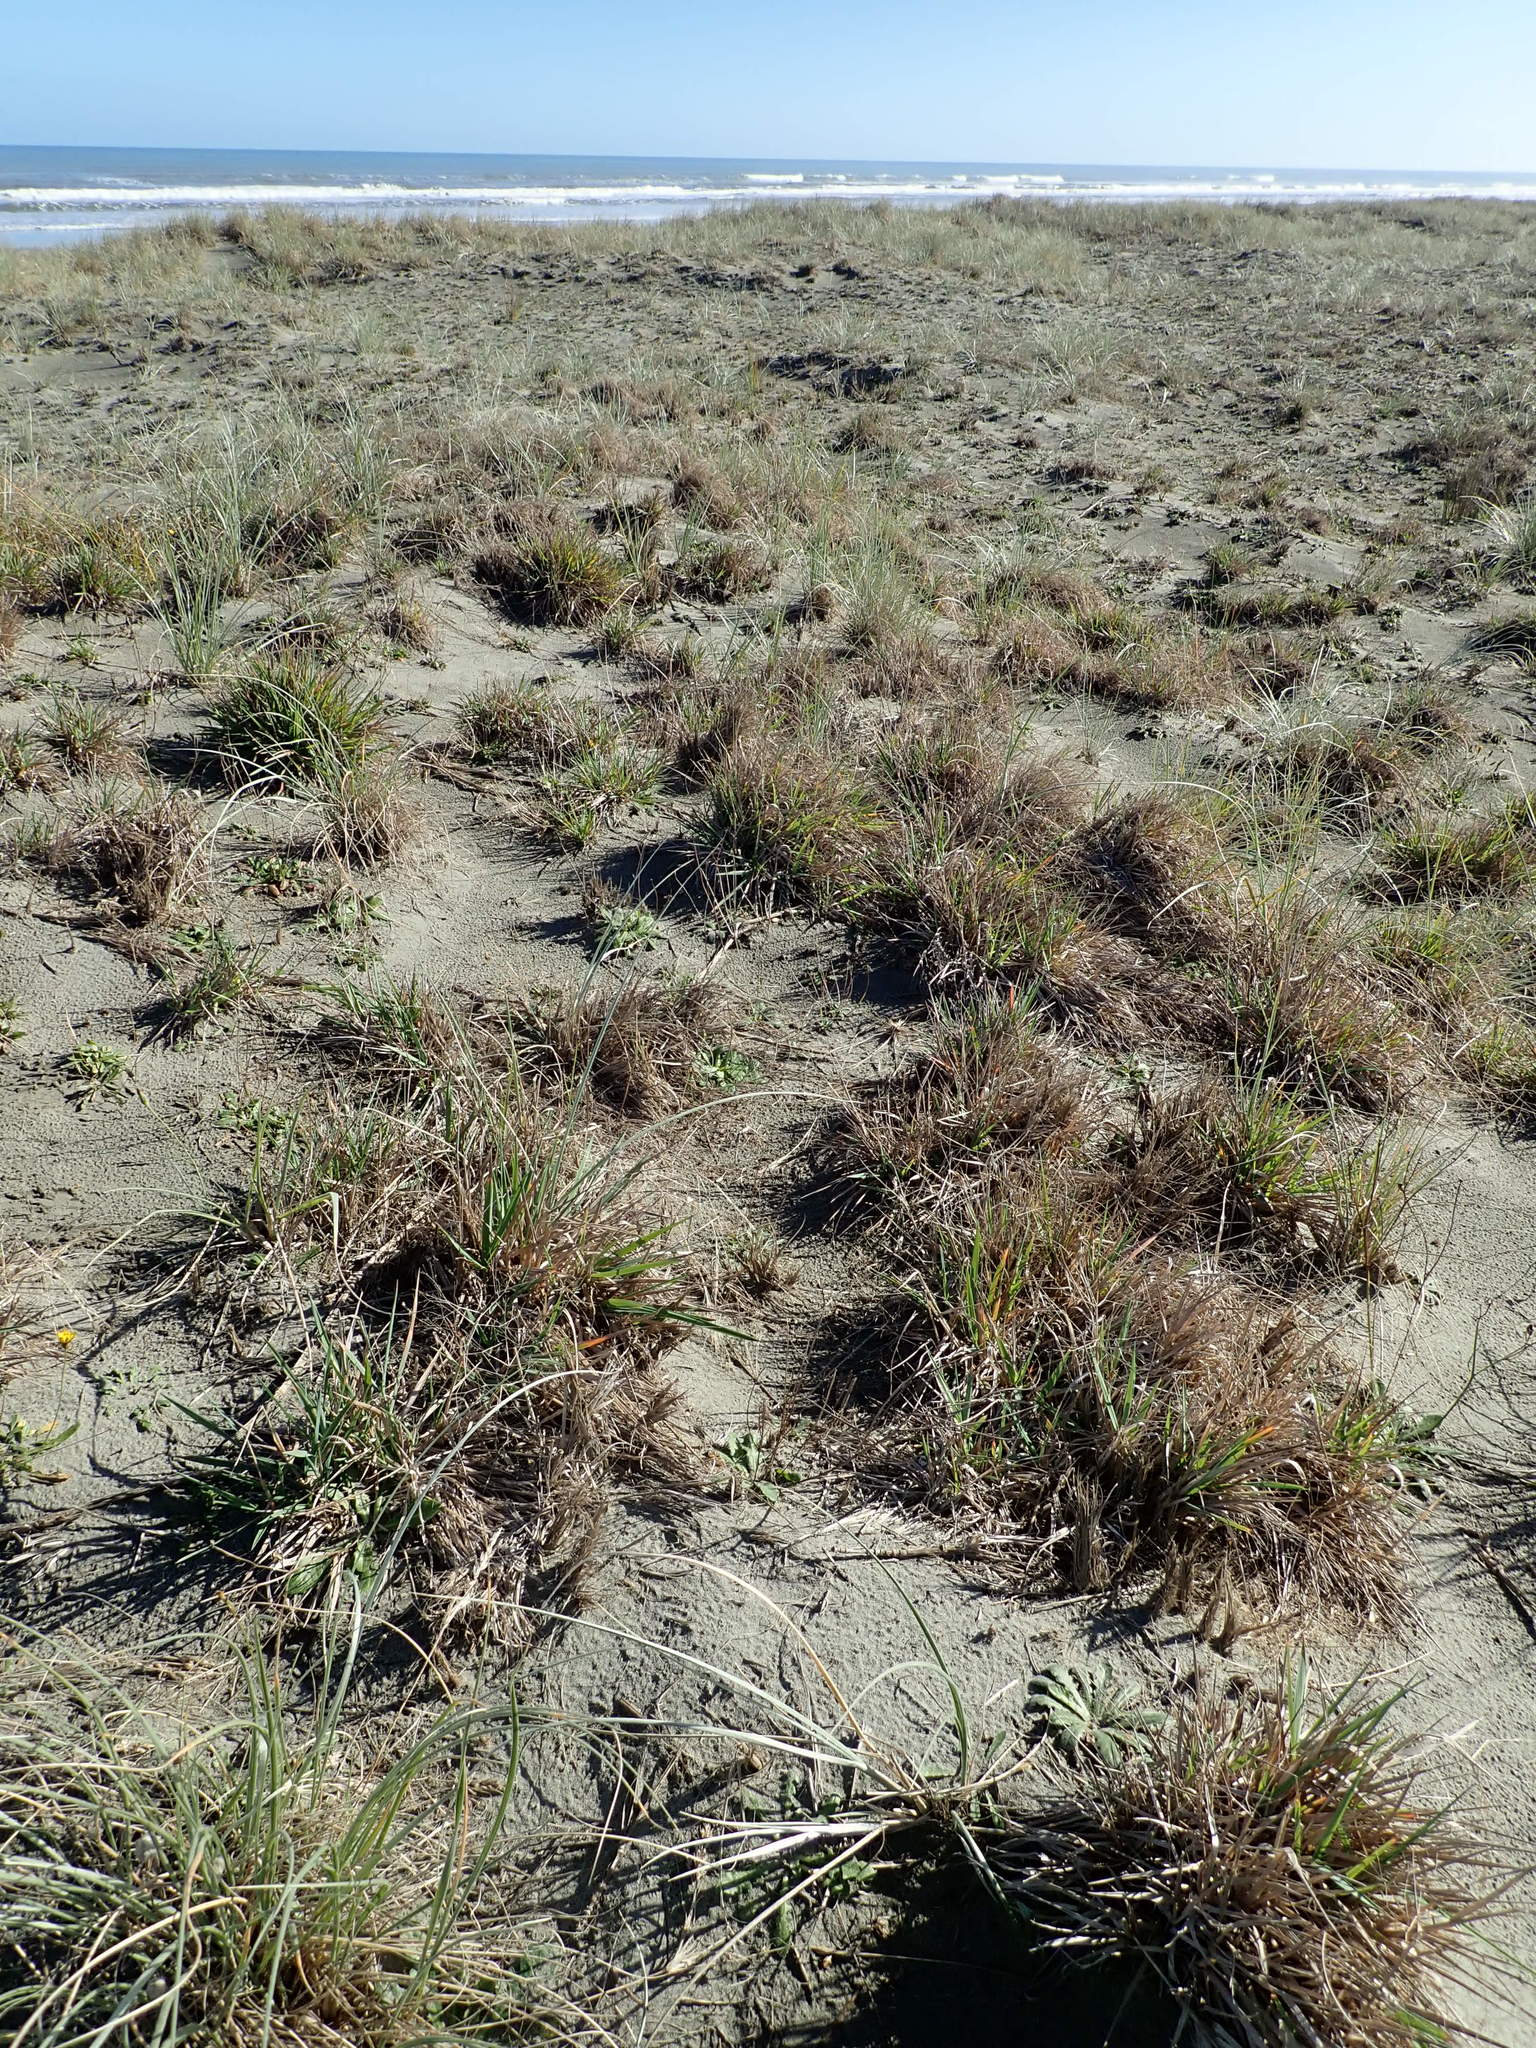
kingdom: Plantae
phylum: Tracheophyta
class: Liliopsida
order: Poales
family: Poaceae
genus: Lachnagrostis
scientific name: Lachnagrostis billardierei
